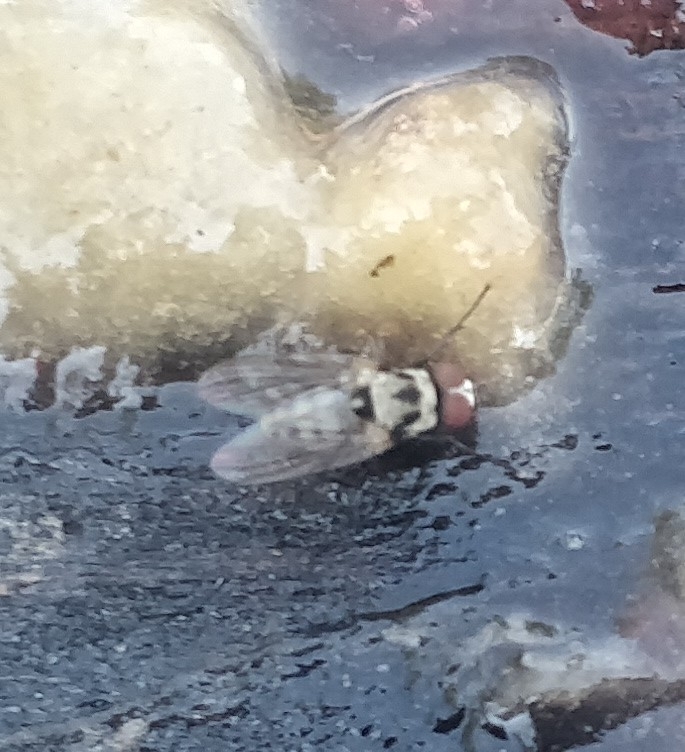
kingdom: Animalia
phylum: Arthropoda
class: Insecta
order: Diptera
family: Anthomyiidae
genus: Anthomyia
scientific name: Anthomyia procellaris
